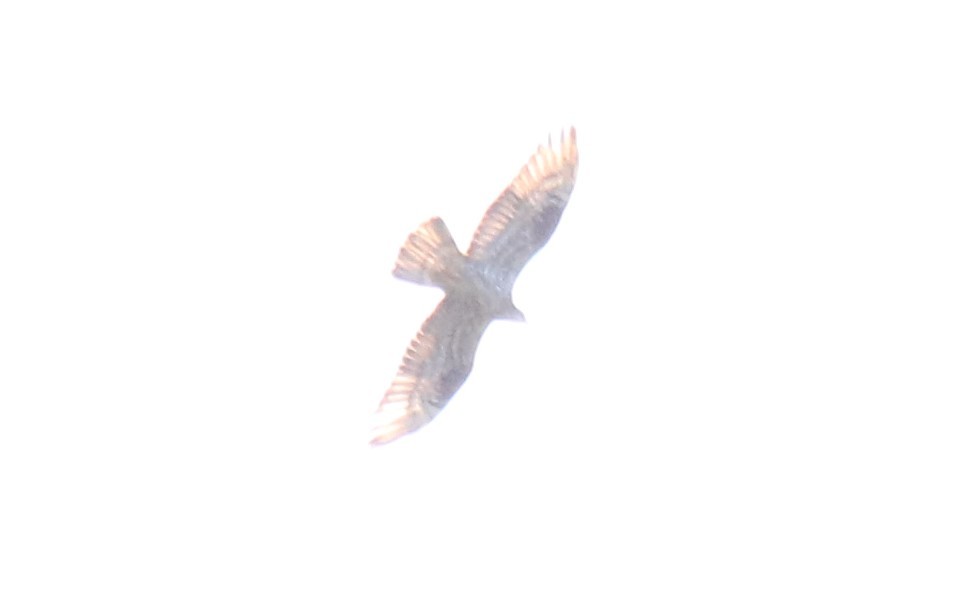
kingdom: Animalia
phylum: Chordata
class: Aves
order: Accipitriformes
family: Accipitridae
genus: Pernis
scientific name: Pernis apivorus
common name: European honey buzzard
